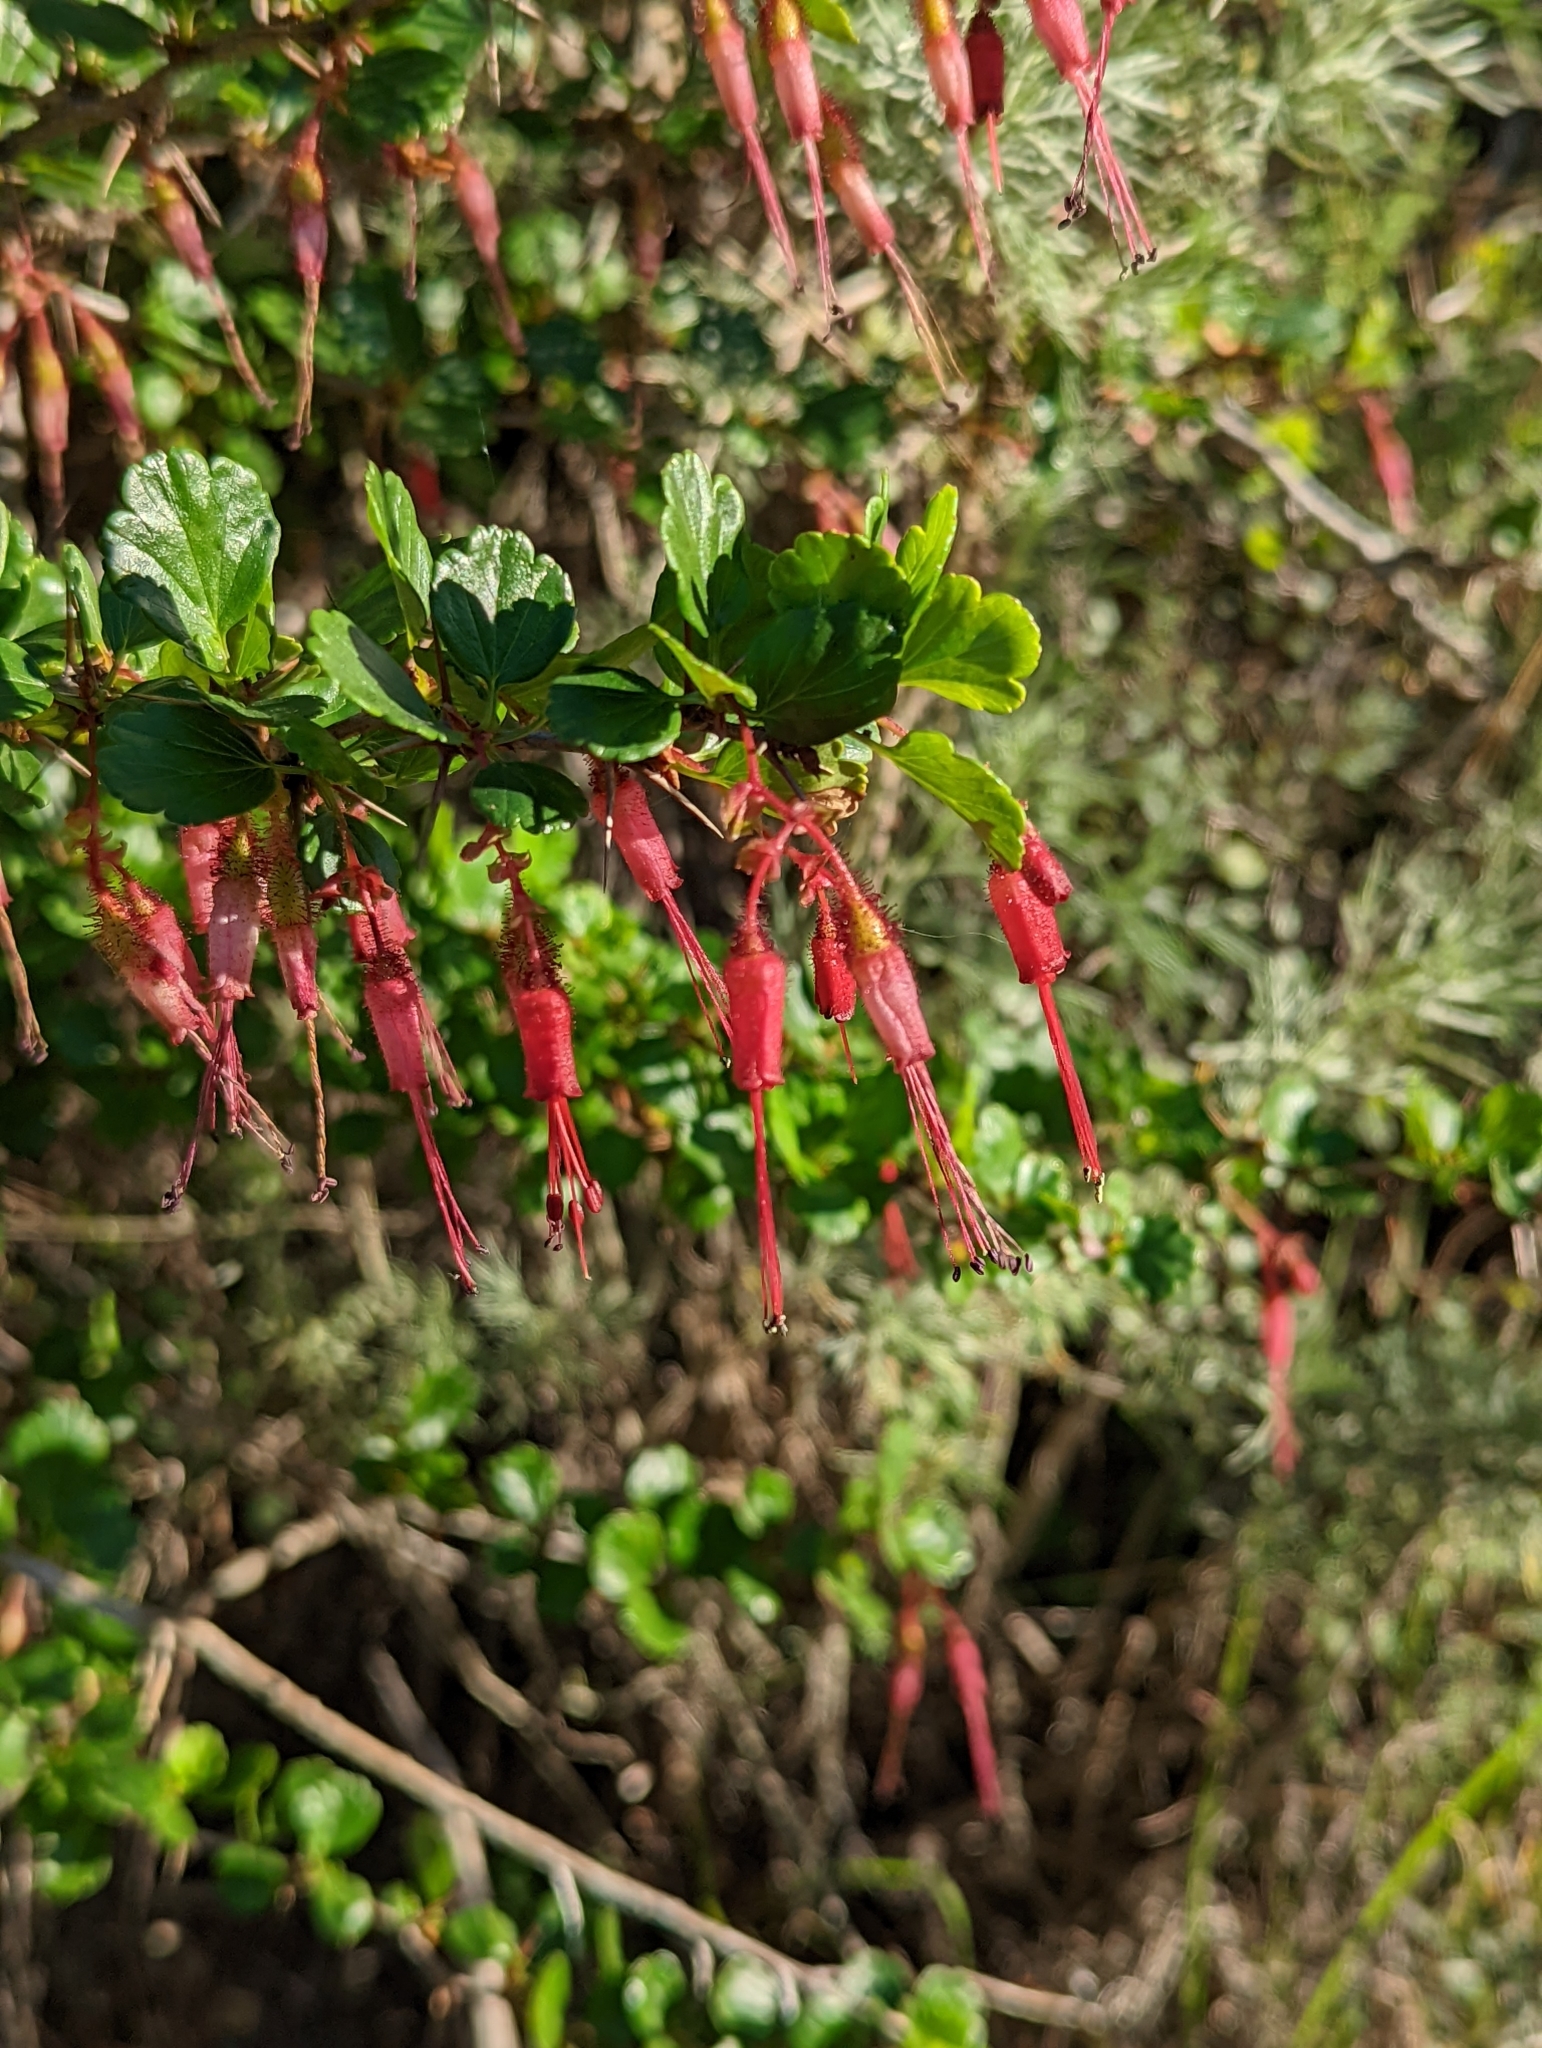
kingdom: Plantae
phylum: Tracheophyta
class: Magnoliopsida
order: Saxifragales
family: Grossulariaceae
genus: Ribes
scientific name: Ribes speciosum
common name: Fuchsia-flower gooseberry
